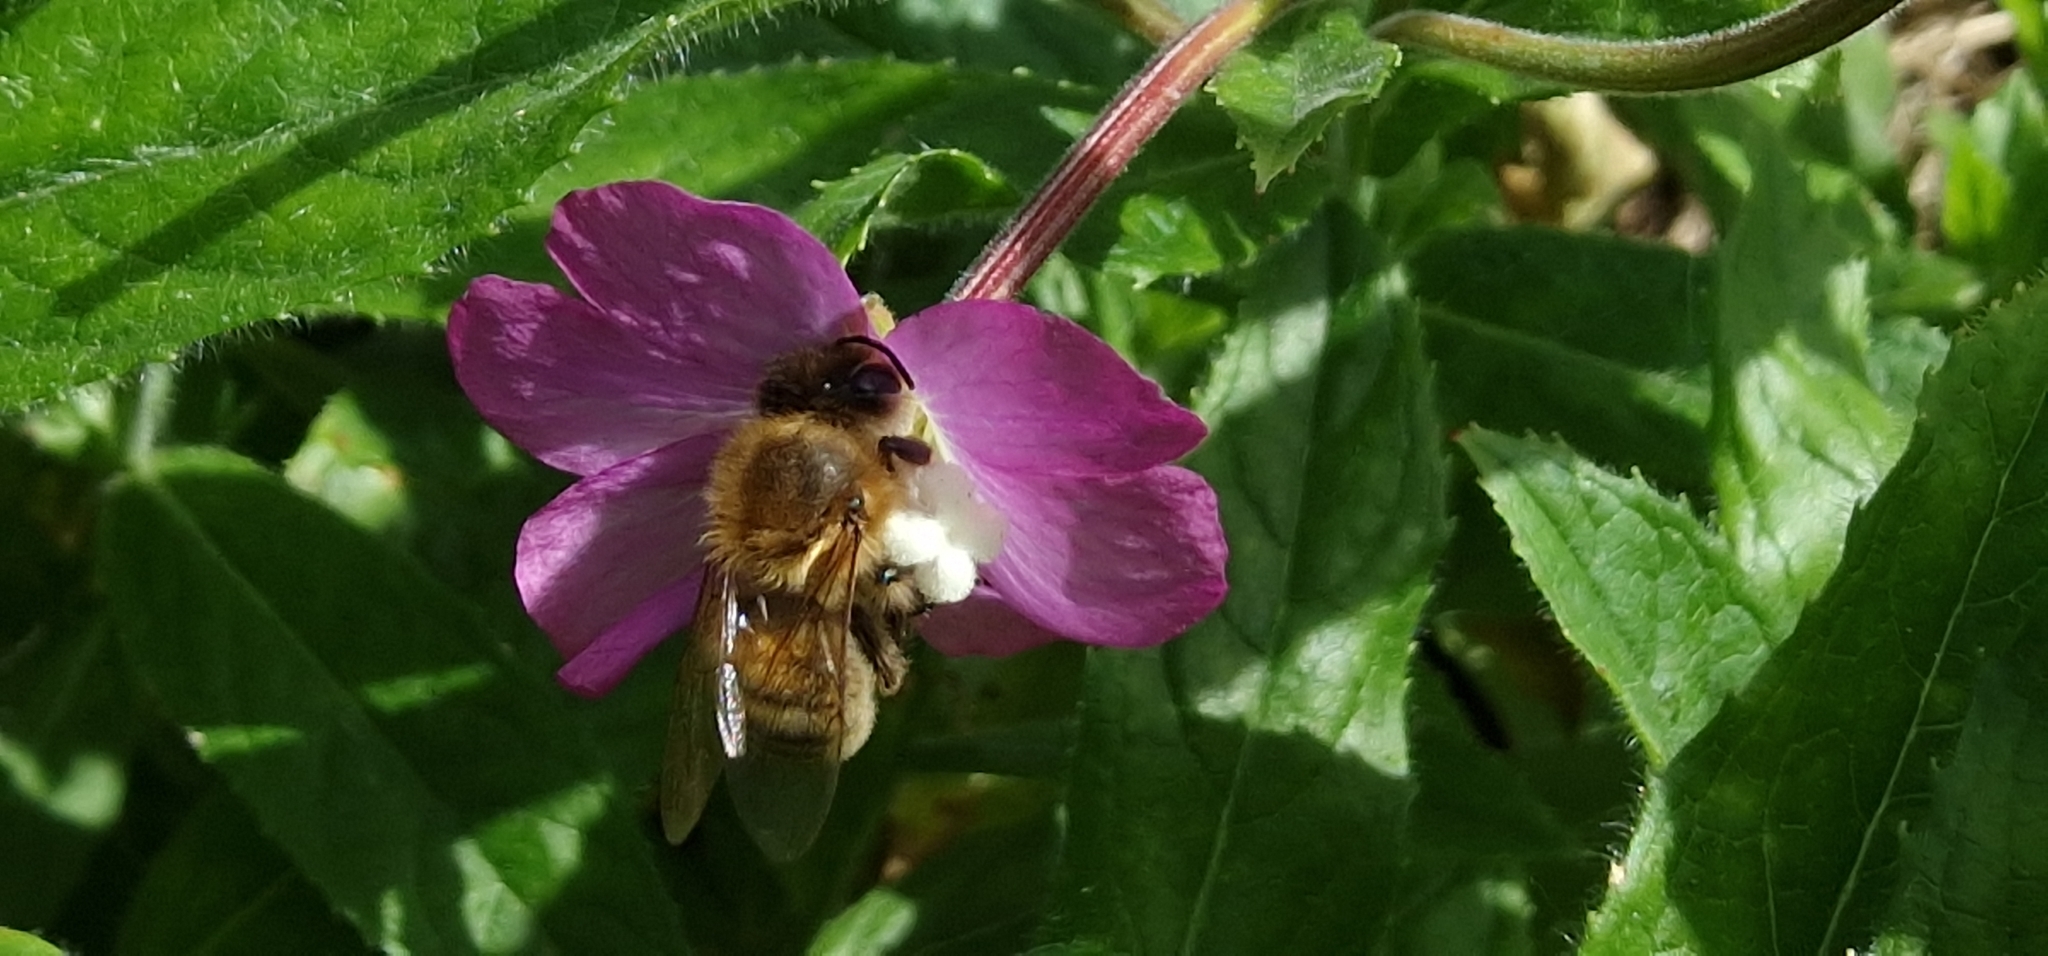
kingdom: Animalia
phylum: Arthropoda
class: Insecta
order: Hymenoptera
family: Apidae
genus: Apis
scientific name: Apis mellifera
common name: Honey bee
